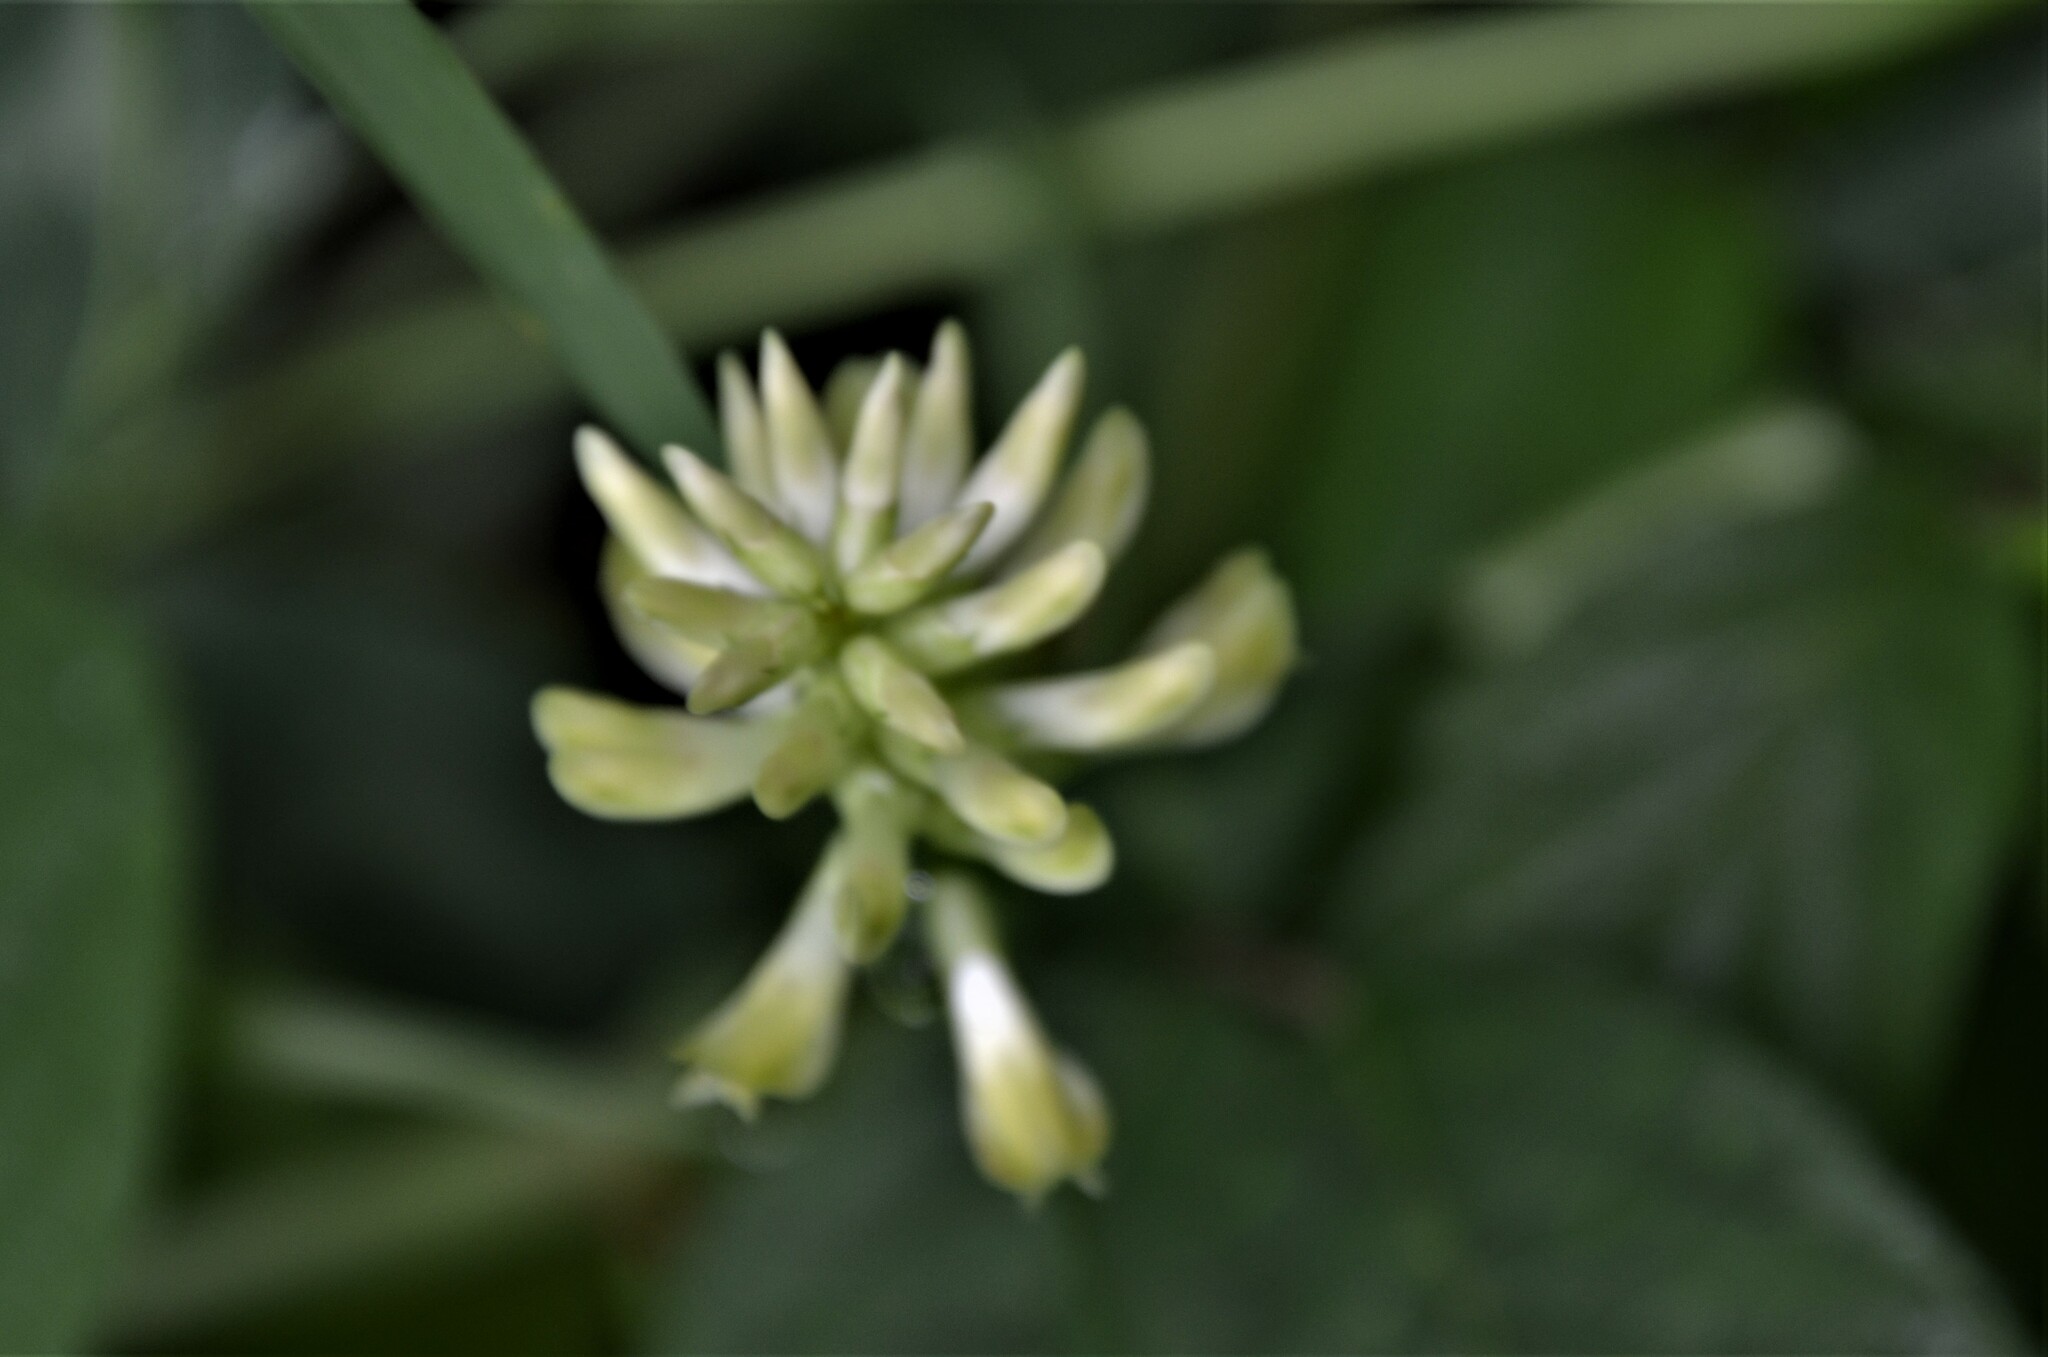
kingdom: Plantae
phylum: Tracheophyta
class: Magnoliopsida
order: Fabales
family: Fabaceae
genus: Astragalus
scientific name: Astragalus glycyphyllos
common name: Wild liquorice
